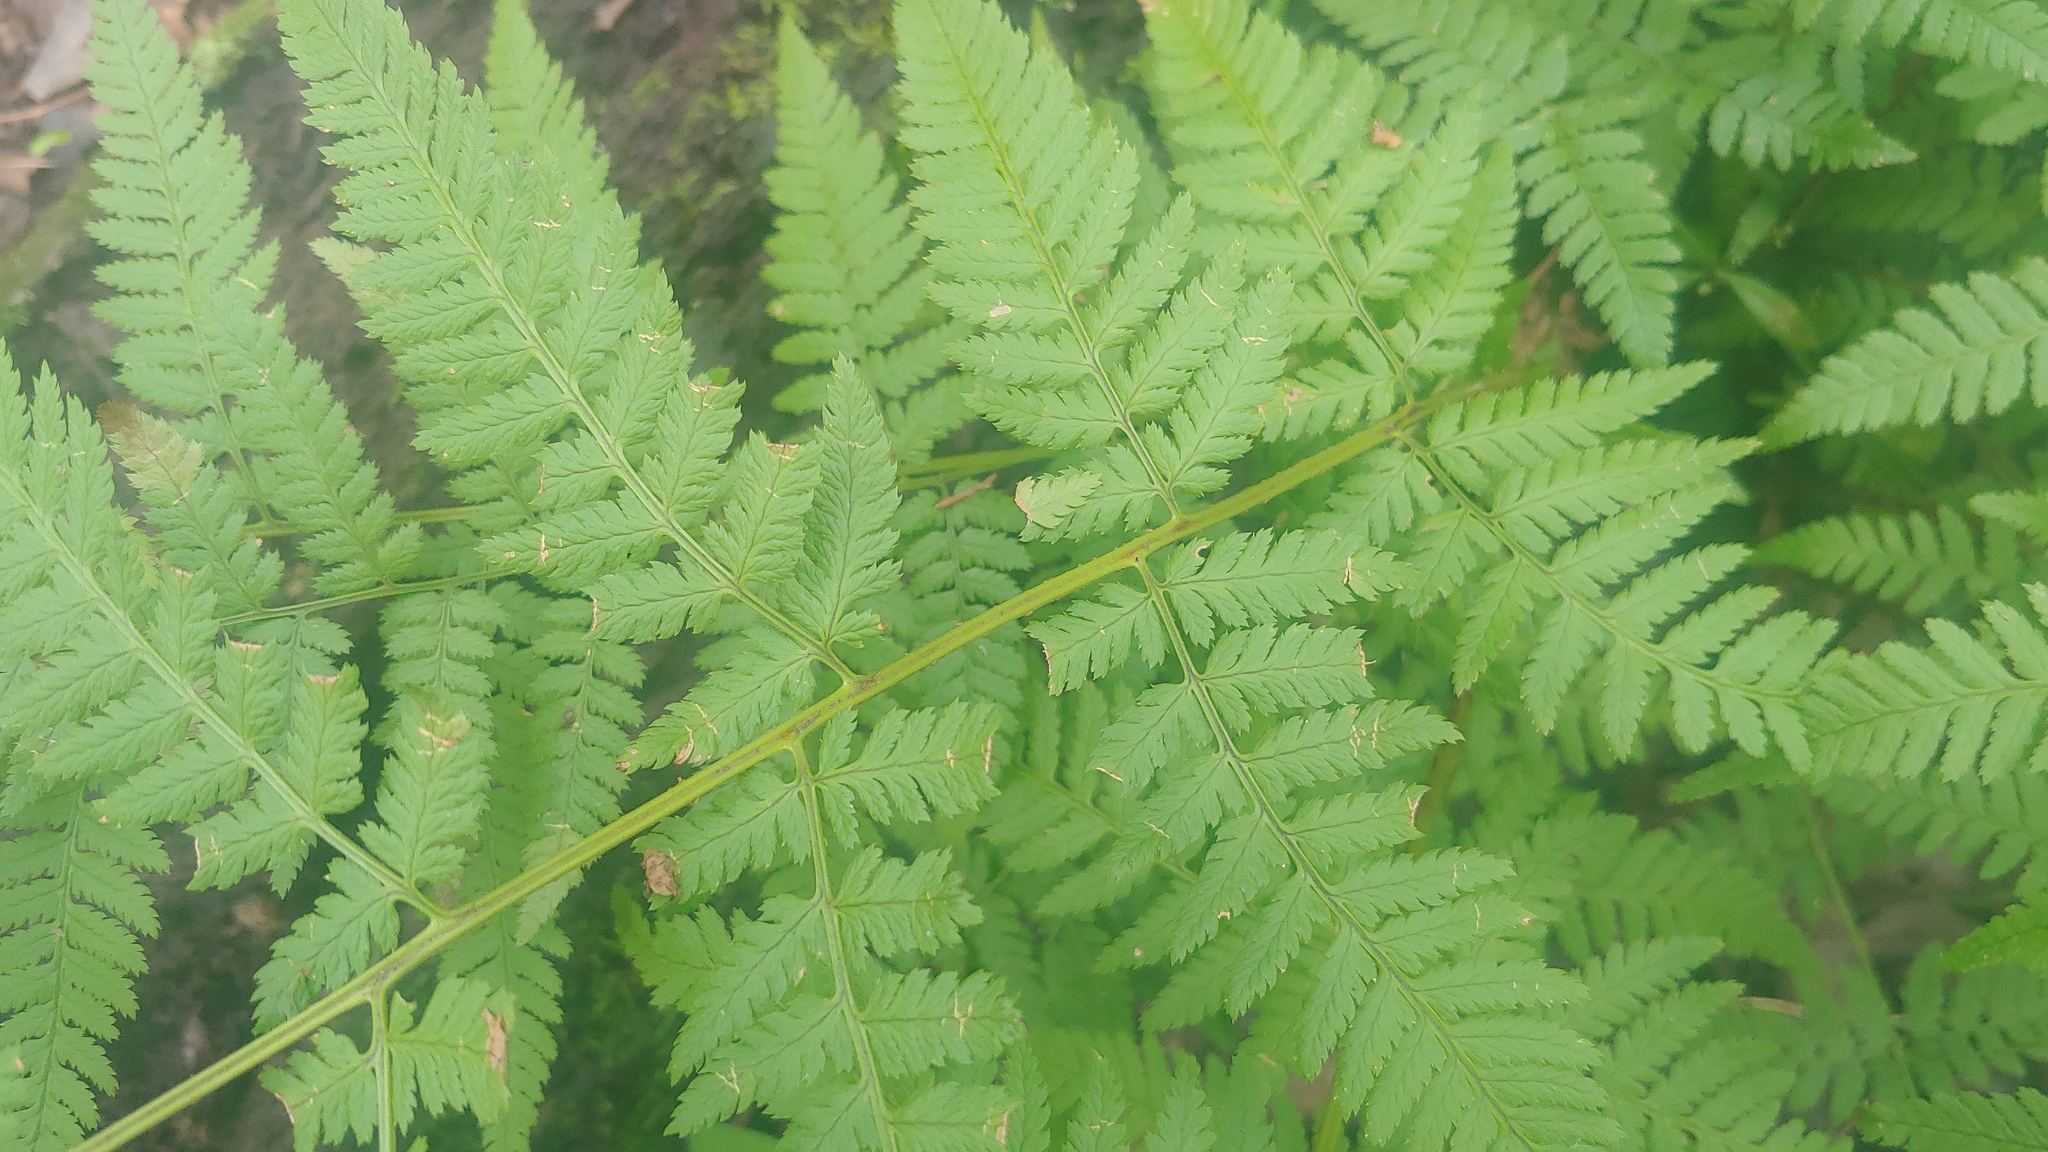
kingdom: Plantae
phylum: Tracheophyta
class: Polypodiopsida
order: Polypodiales
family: Dryopteridaceae
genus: Dryopteris
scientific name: Dryopteris carthusiana
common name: Narrow buckler-fern
